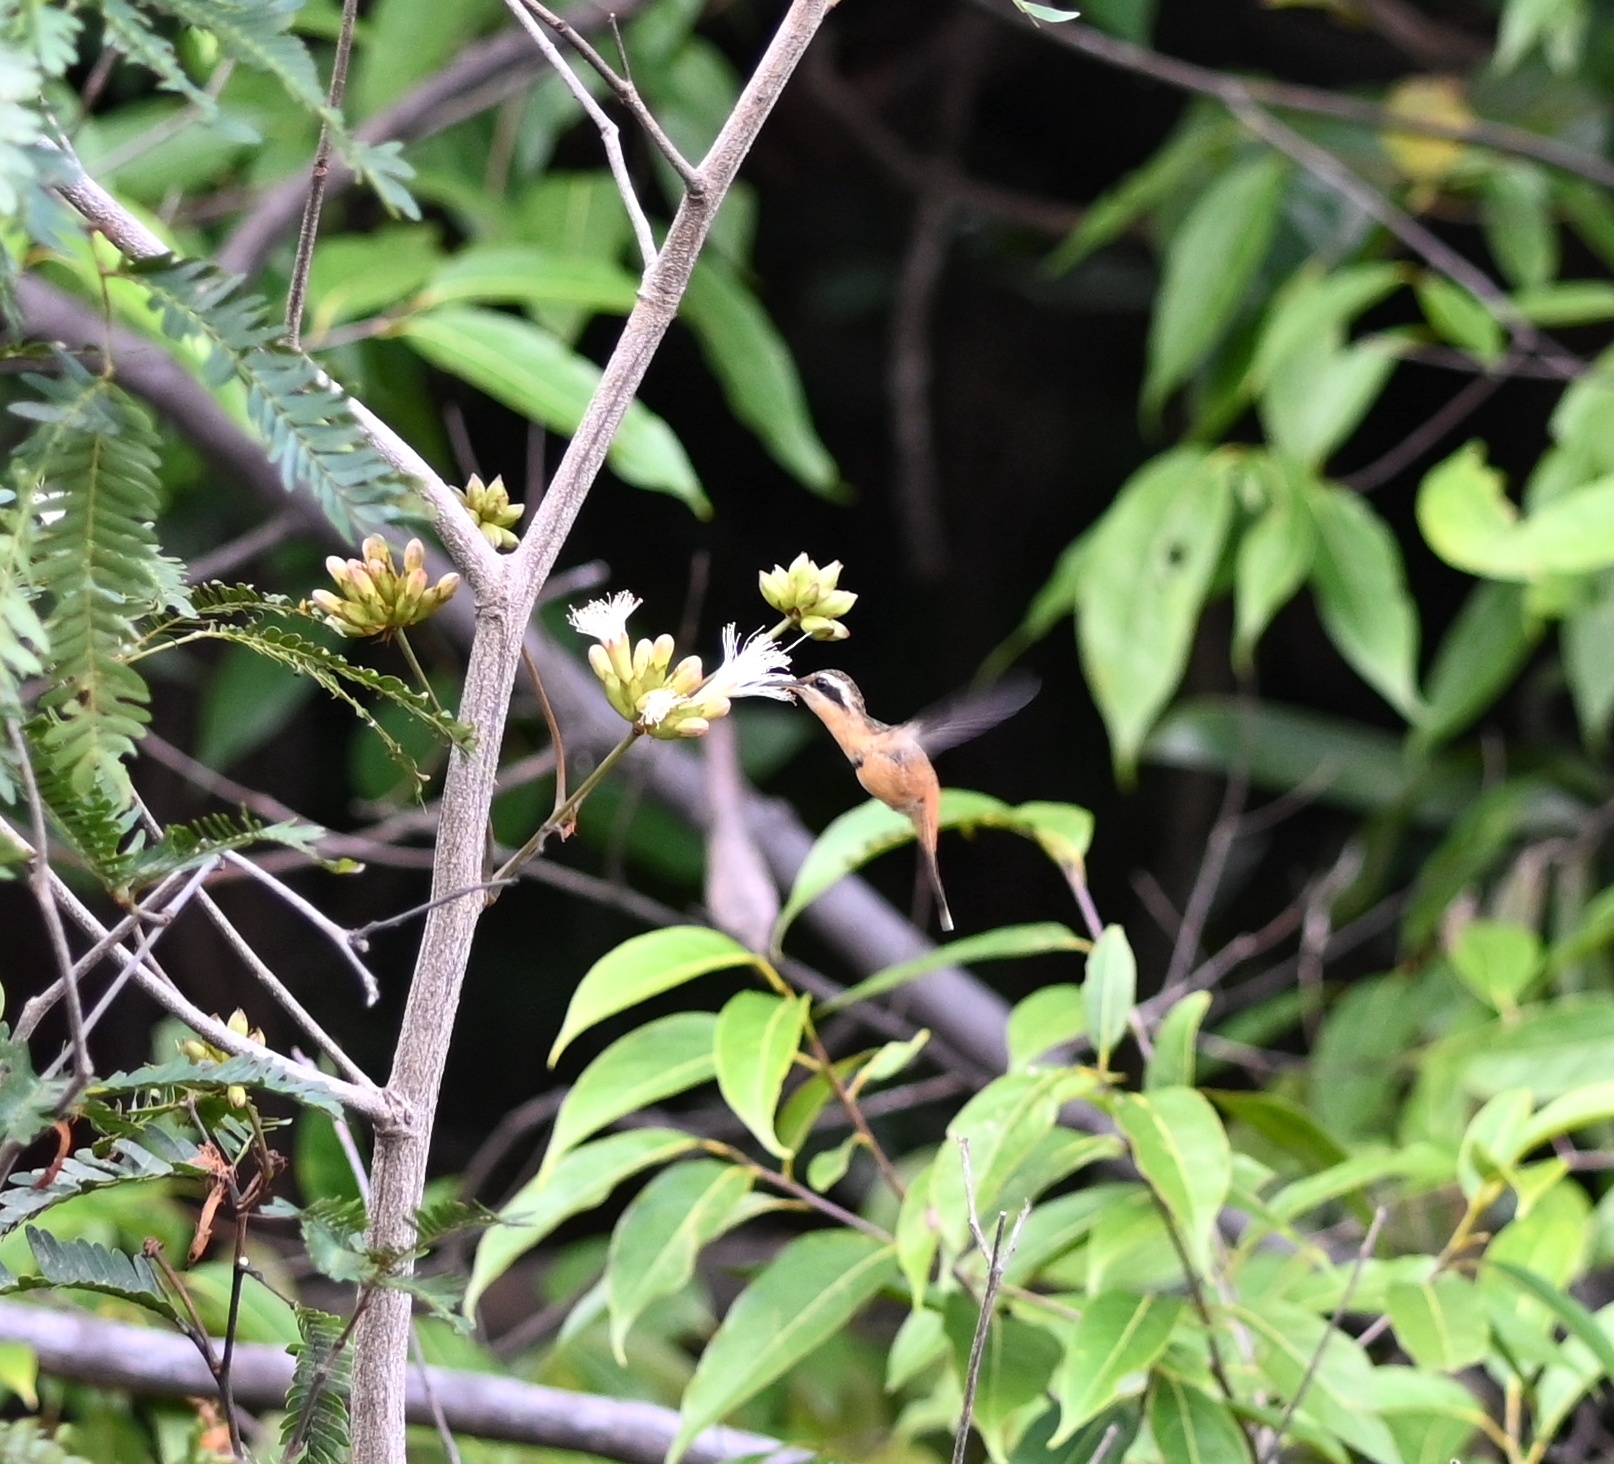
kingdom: Animalia
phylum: Chordata
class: Aves
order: Apodiformes
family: Trochilidae
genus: Phaethornis
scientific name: Phaethornis ruber
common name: Reddish hermit
